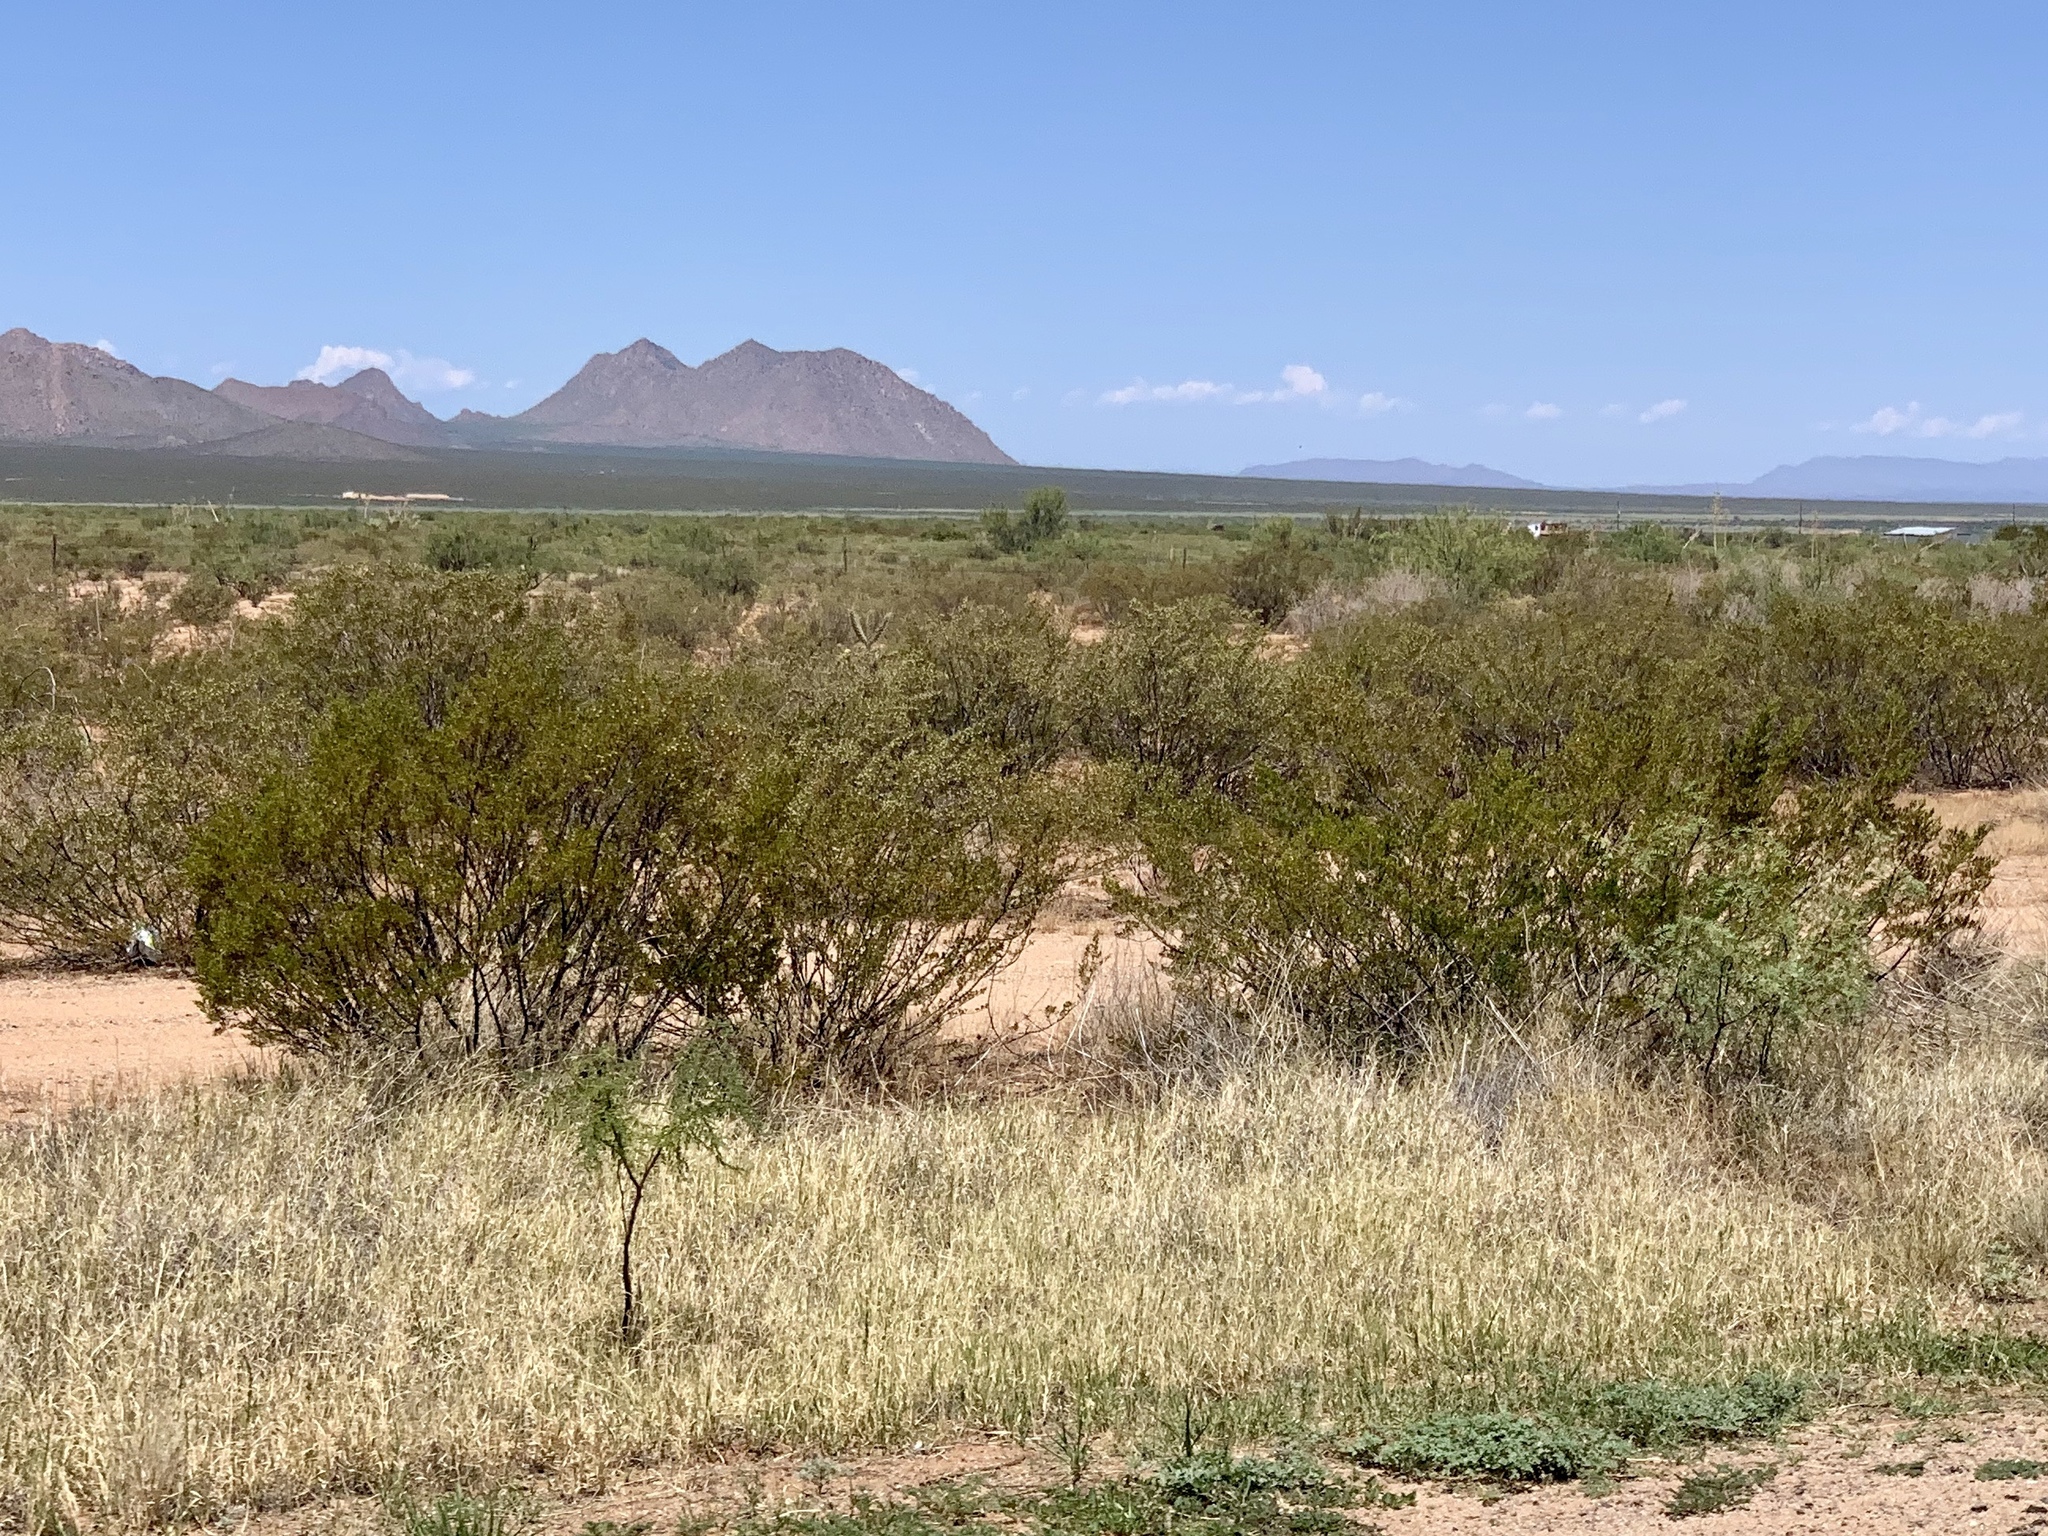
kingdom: Plantae
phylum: Tracheophyta
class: Magnoliopsida
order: Zygophyllales
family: Zygophyllaceae
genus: Larrea
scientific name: Larrea tridentata
